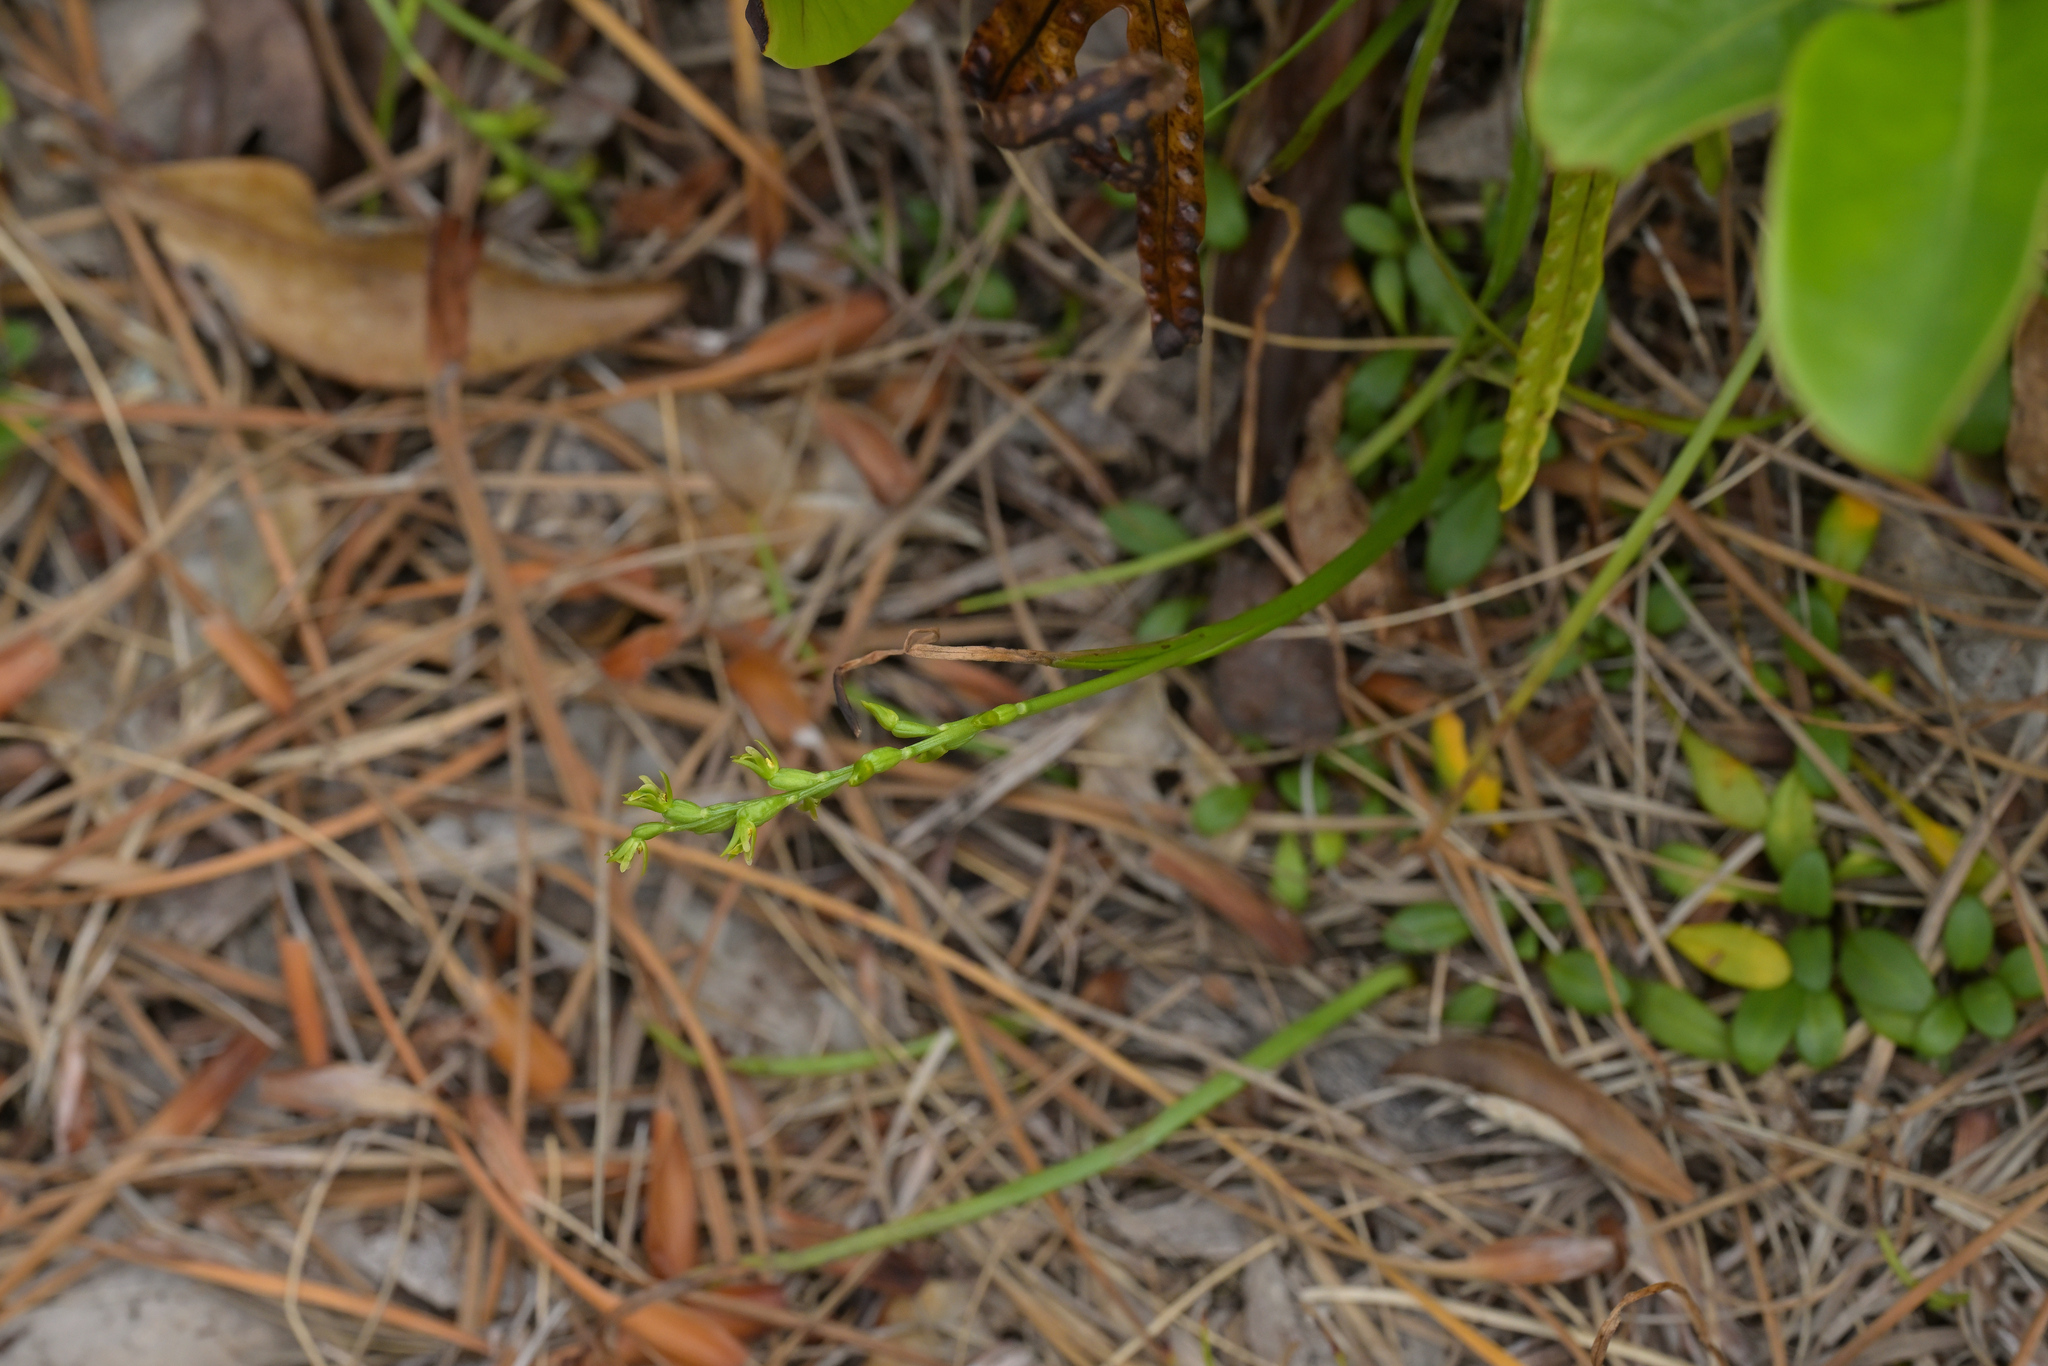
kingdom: Plantae
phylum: Tracheophyta
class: Liliopsida
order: Asparagales
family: Orchidaceae
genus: Prasophyllum
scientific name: Prasophyllum colensoi
